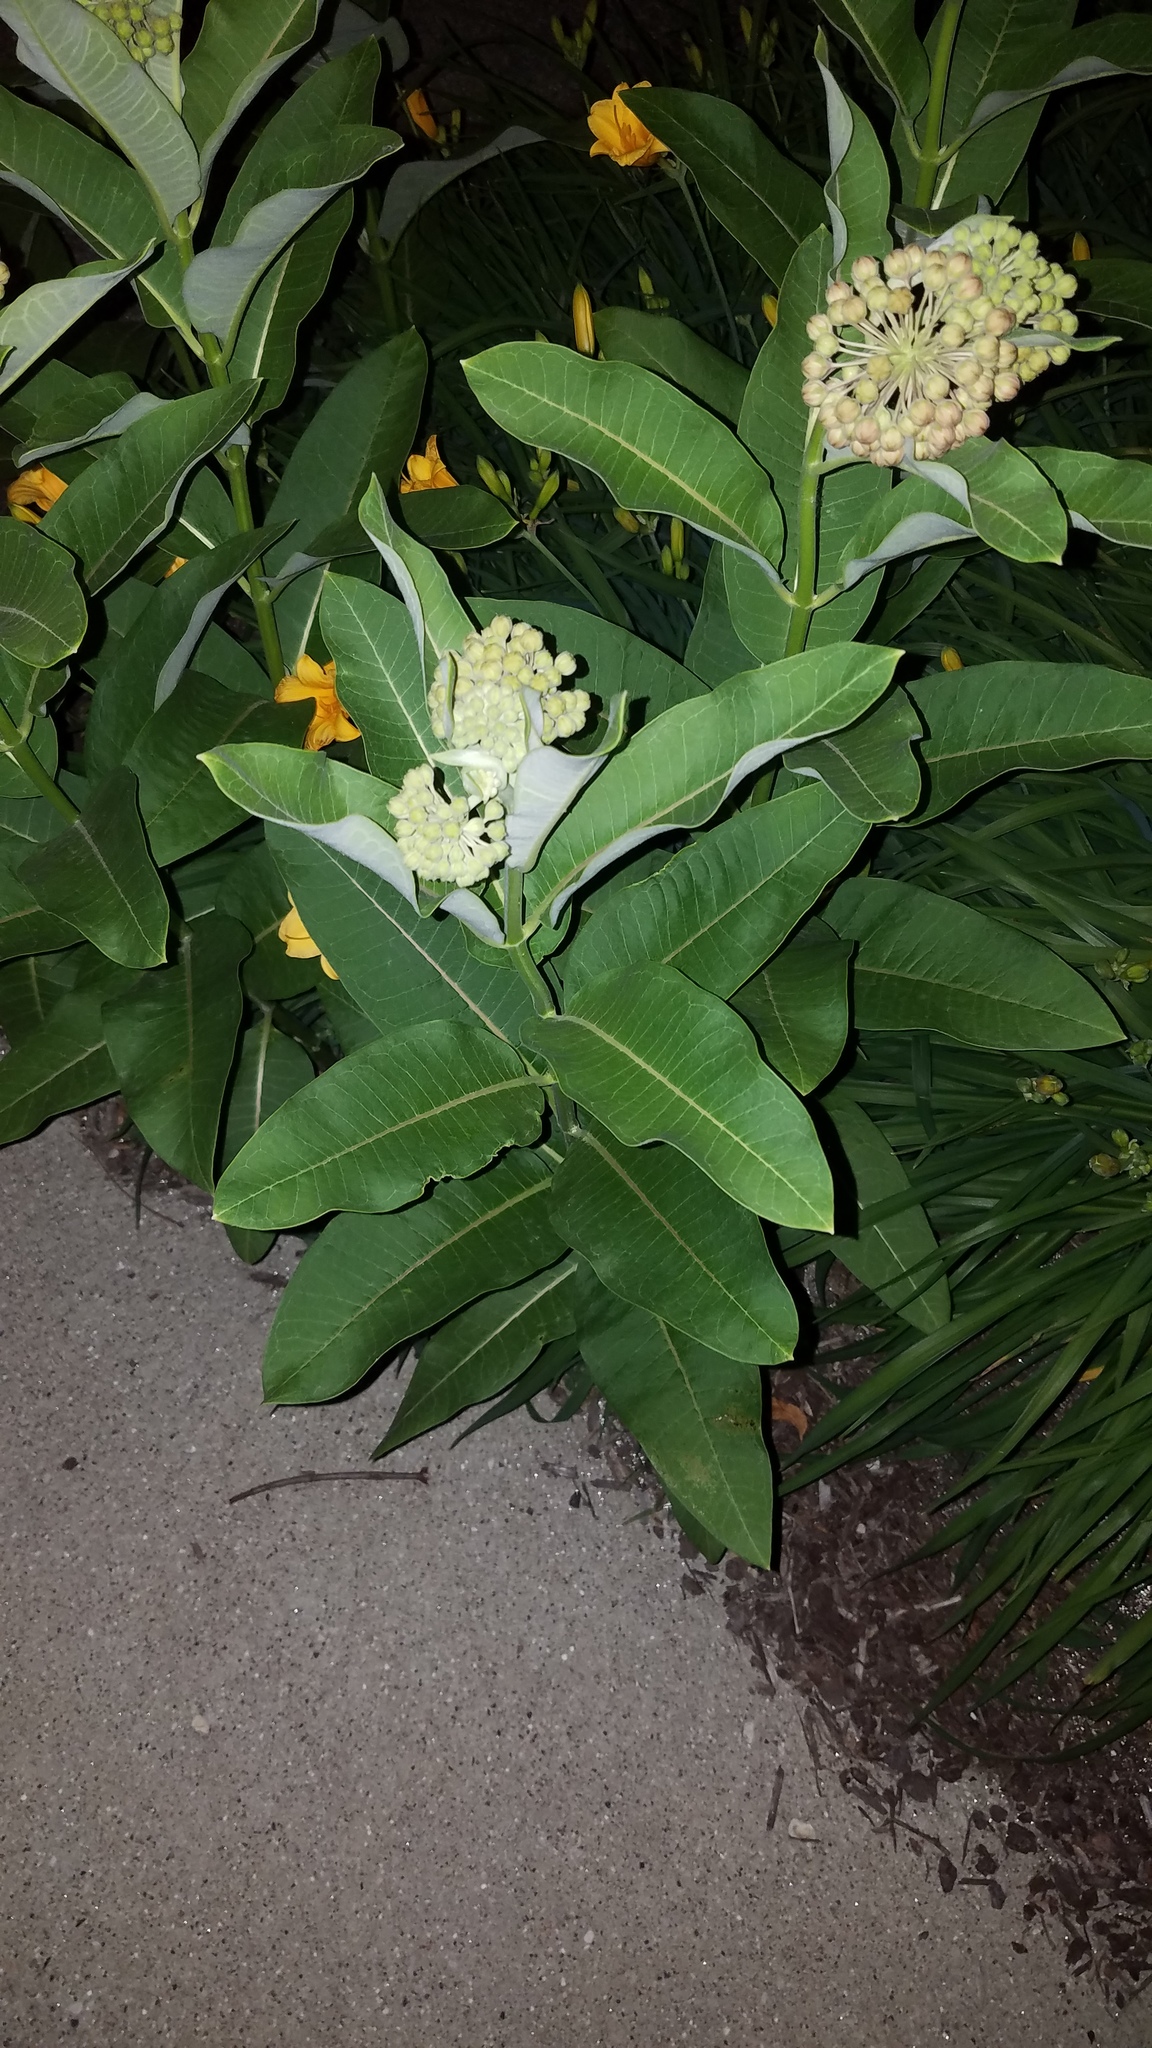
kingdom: Plantae
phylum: Tracheophyta
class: Magnoliopsida
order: Gentianales
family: Apocynaceae
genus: Asclepias
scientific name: Asclepias syriaca
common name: Common milkweed
